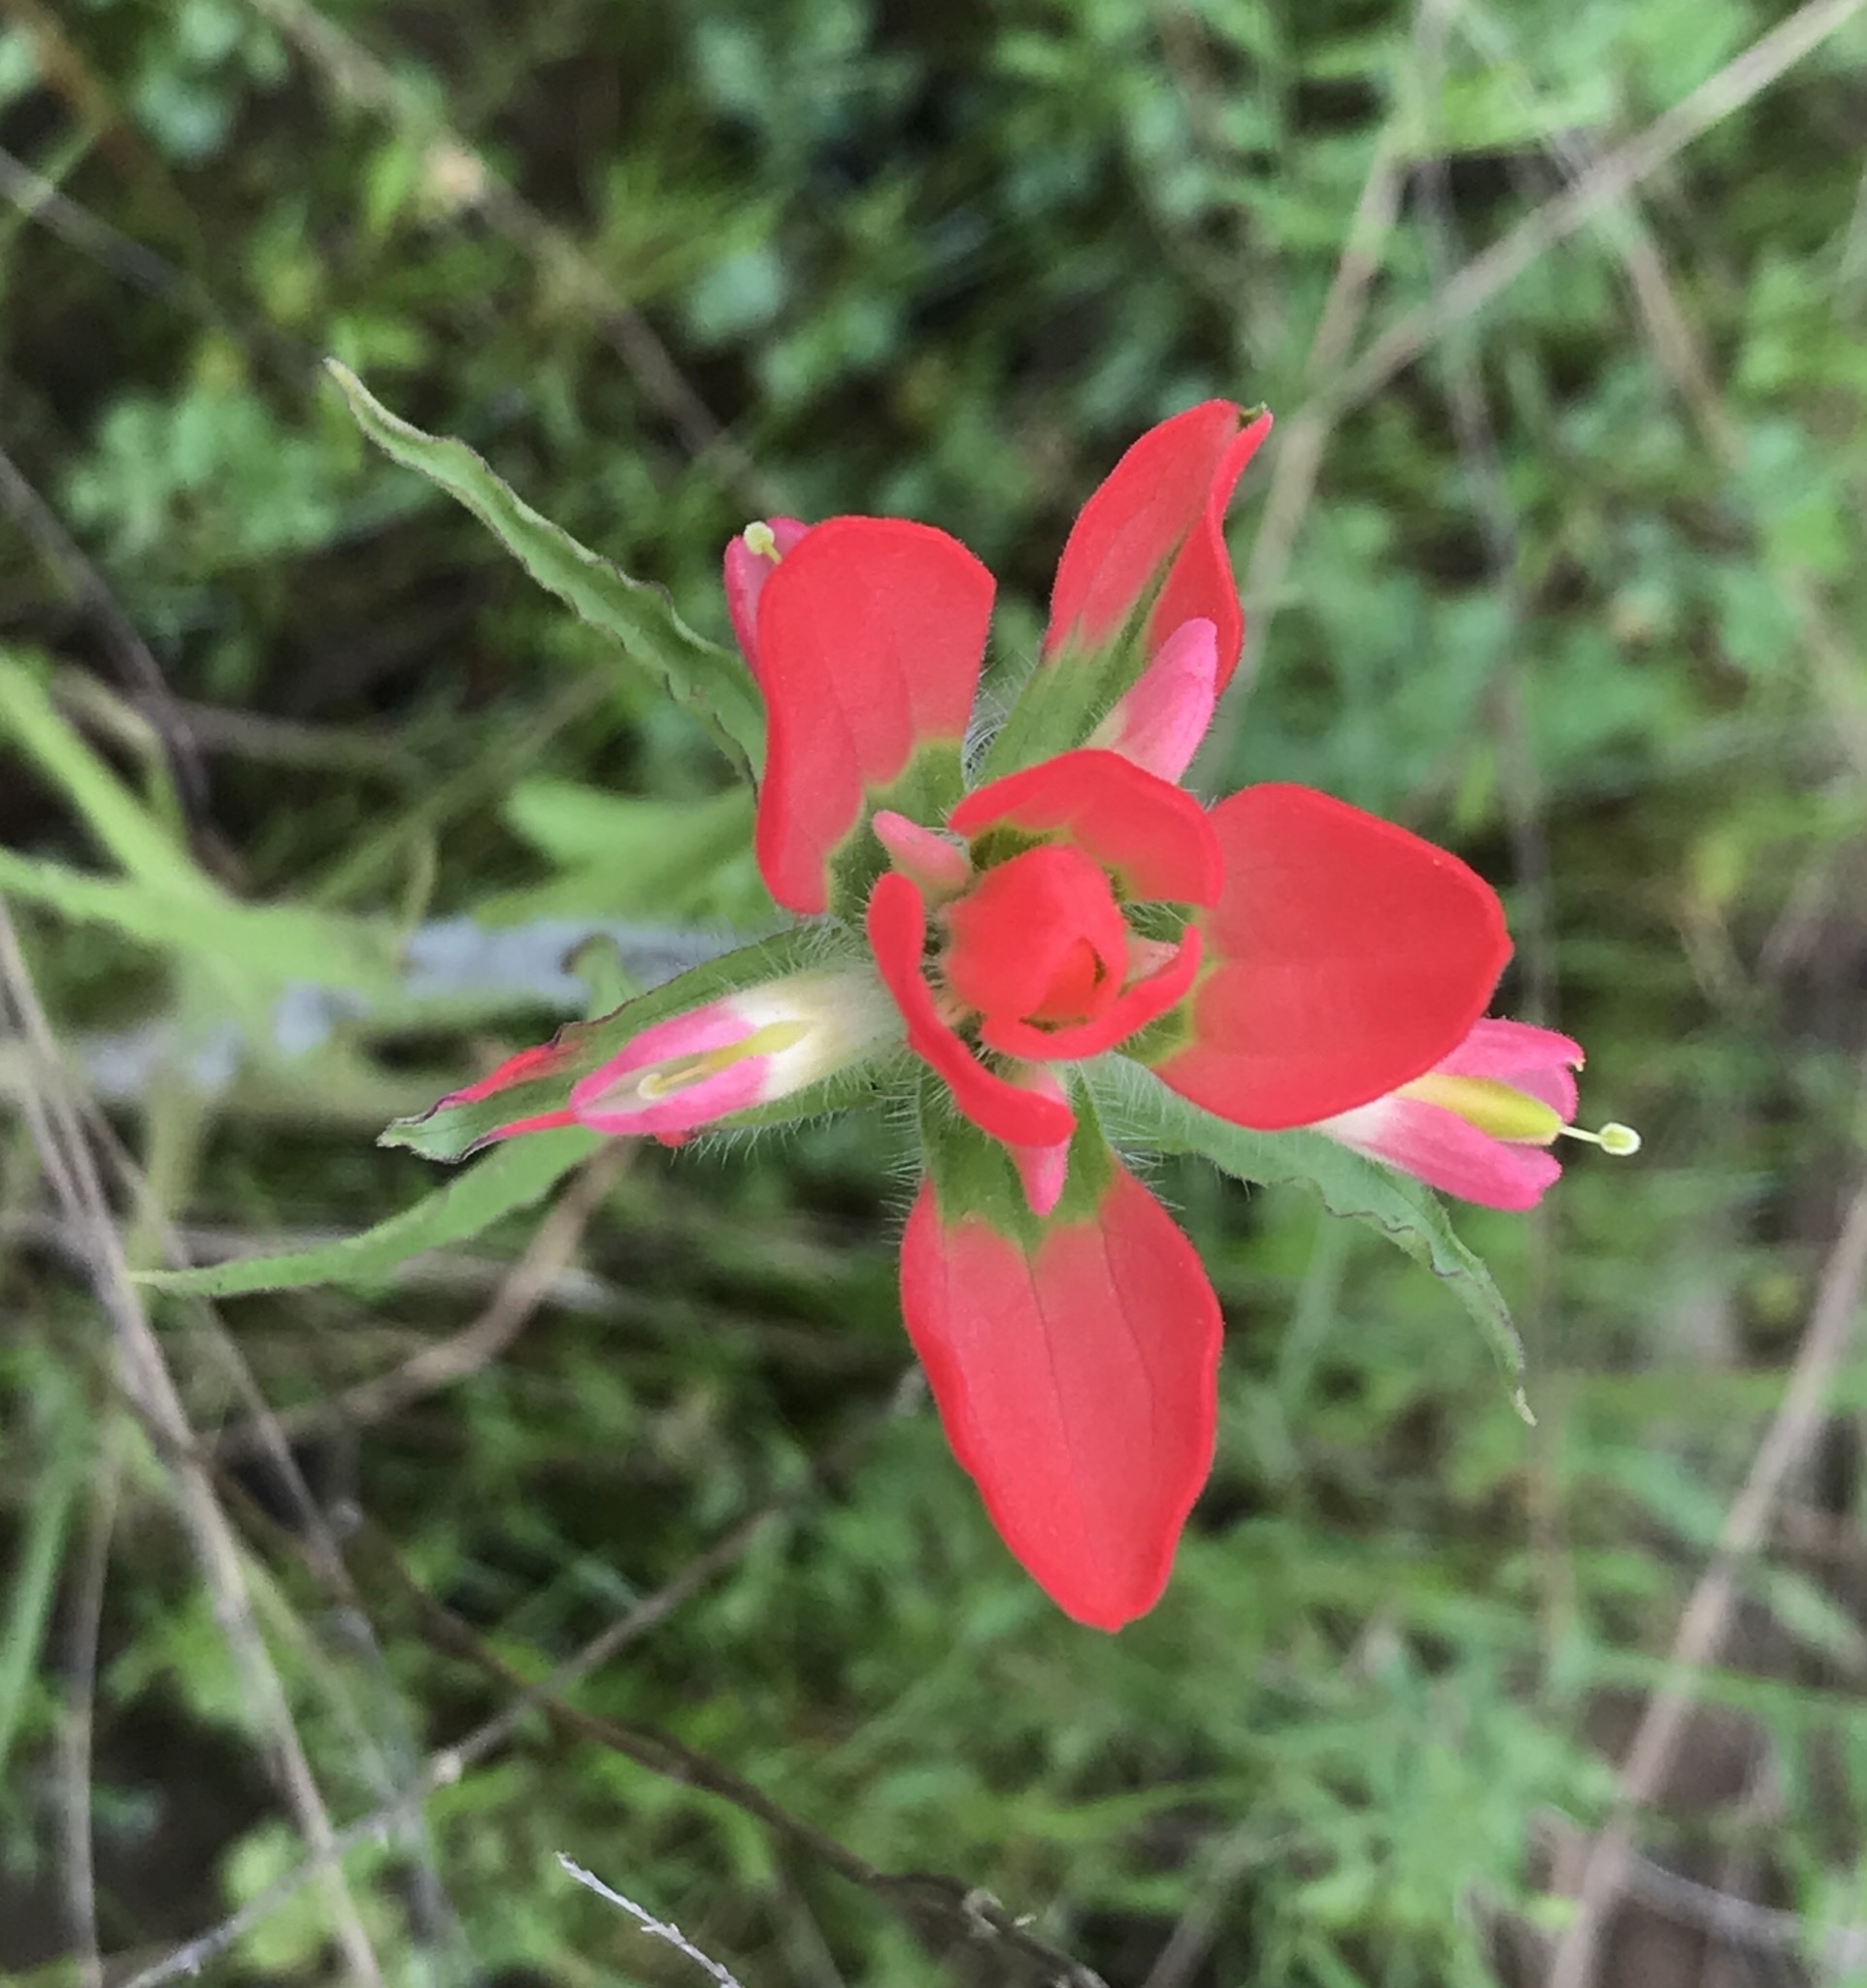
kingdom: Plantae
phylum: Tracheophyta
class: Magnoliopsida
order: Lamiales
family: Orobanchaceae
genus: Castilleja
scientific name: Castilleja indivisa
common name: Texas paintbrush
